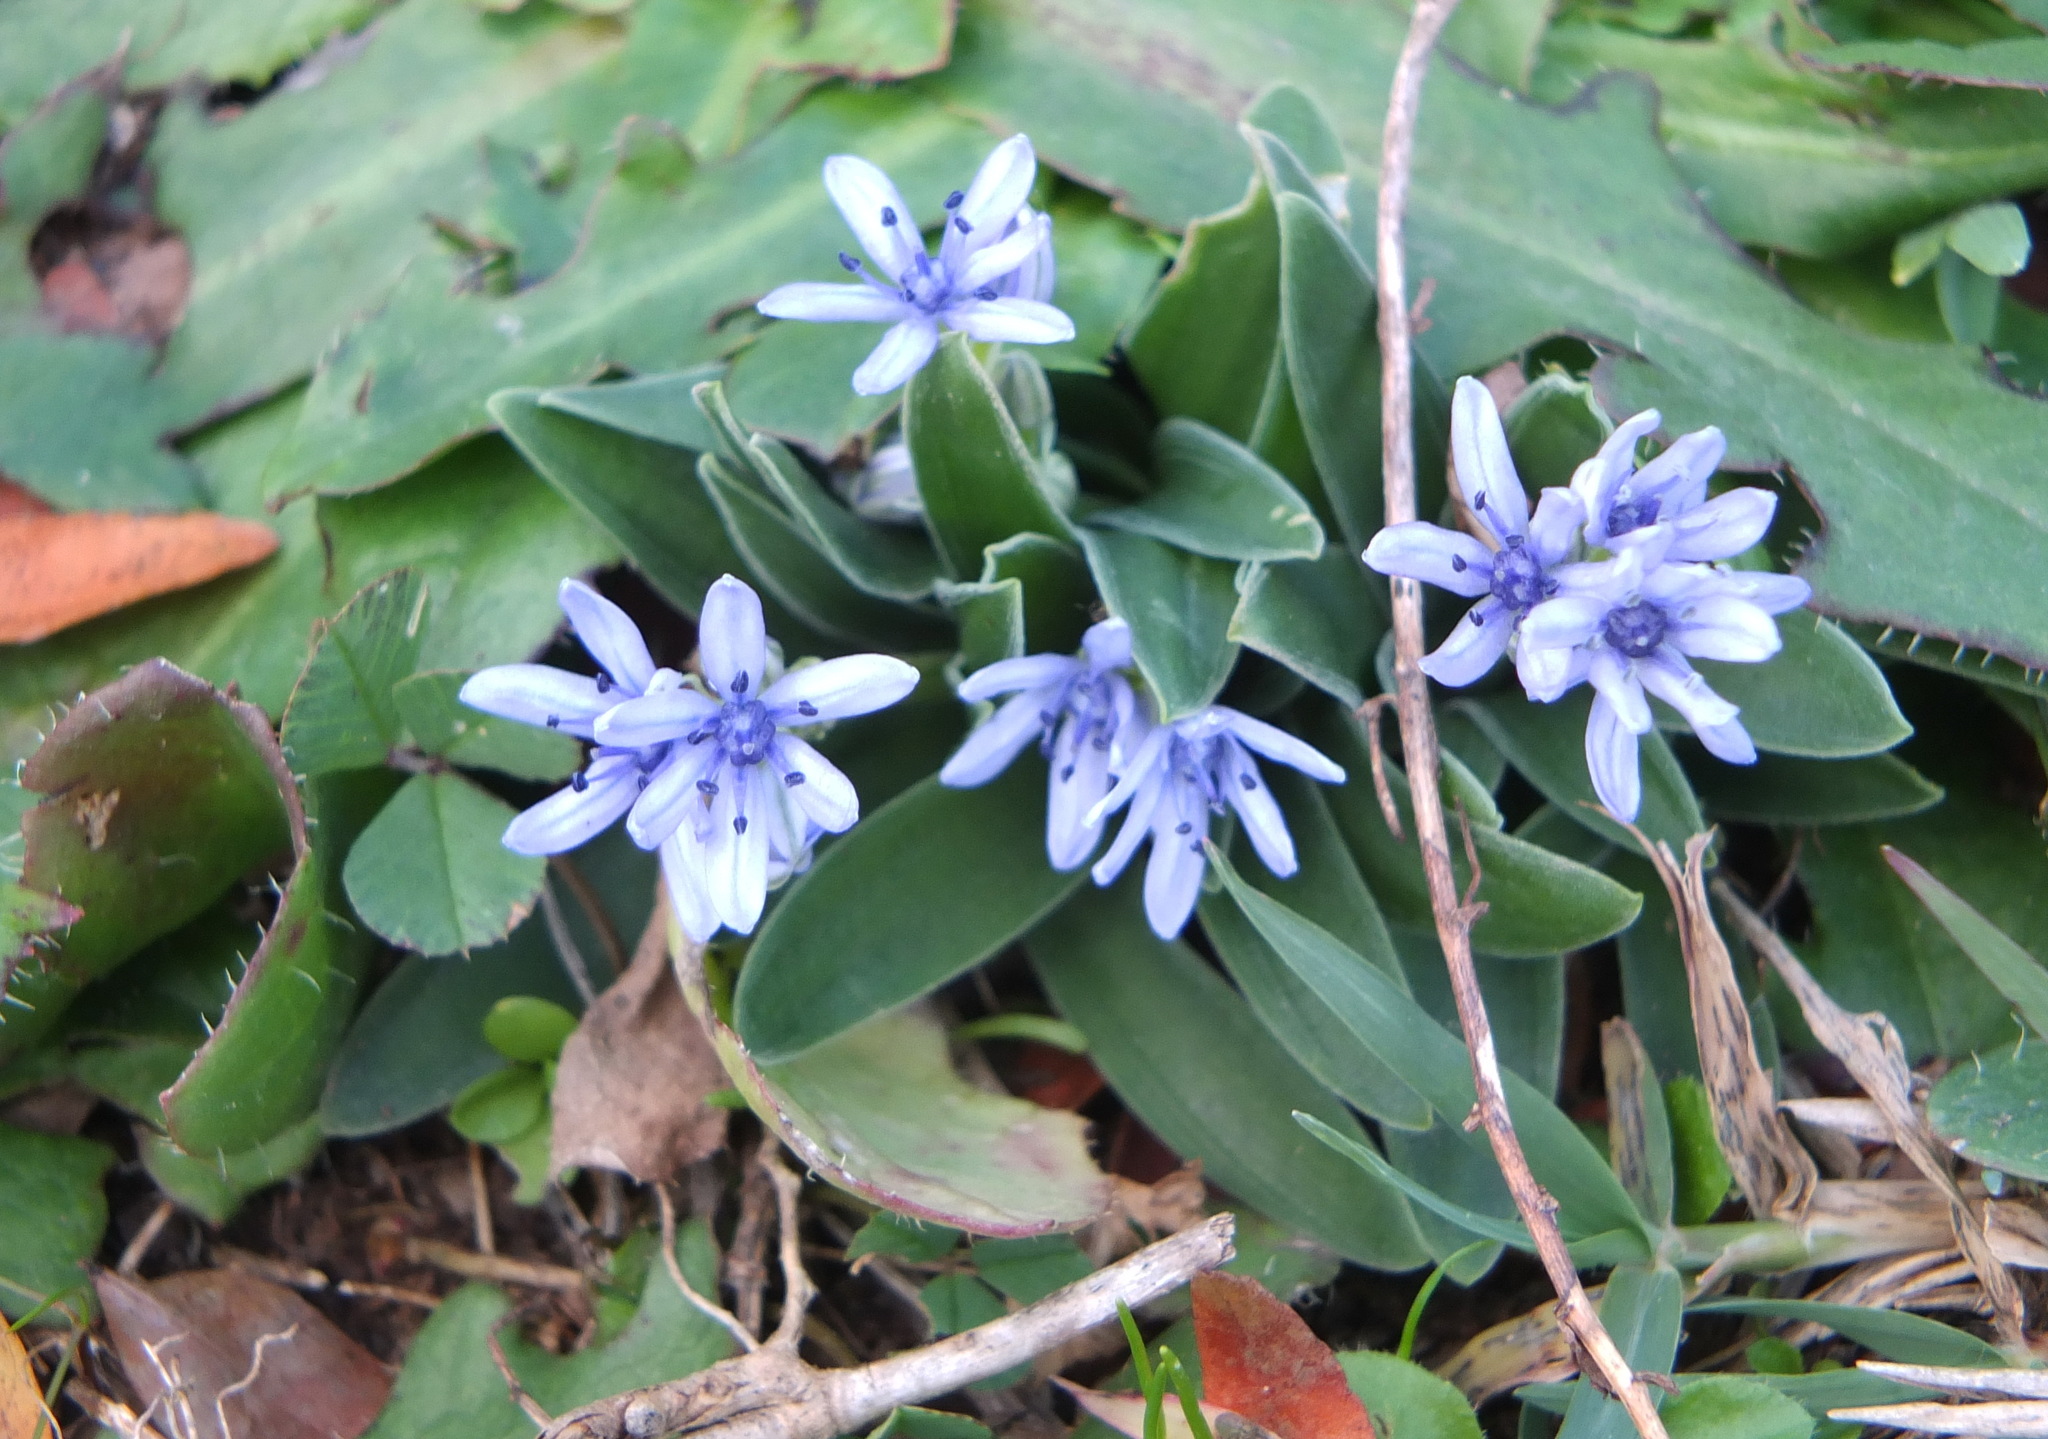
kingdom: Plantae
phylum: Tracheophyta
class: Liliopsida
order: Asparagales
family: Asparagaceae
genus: Hyacinthoides
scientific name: Hyacinthoides lingulata
